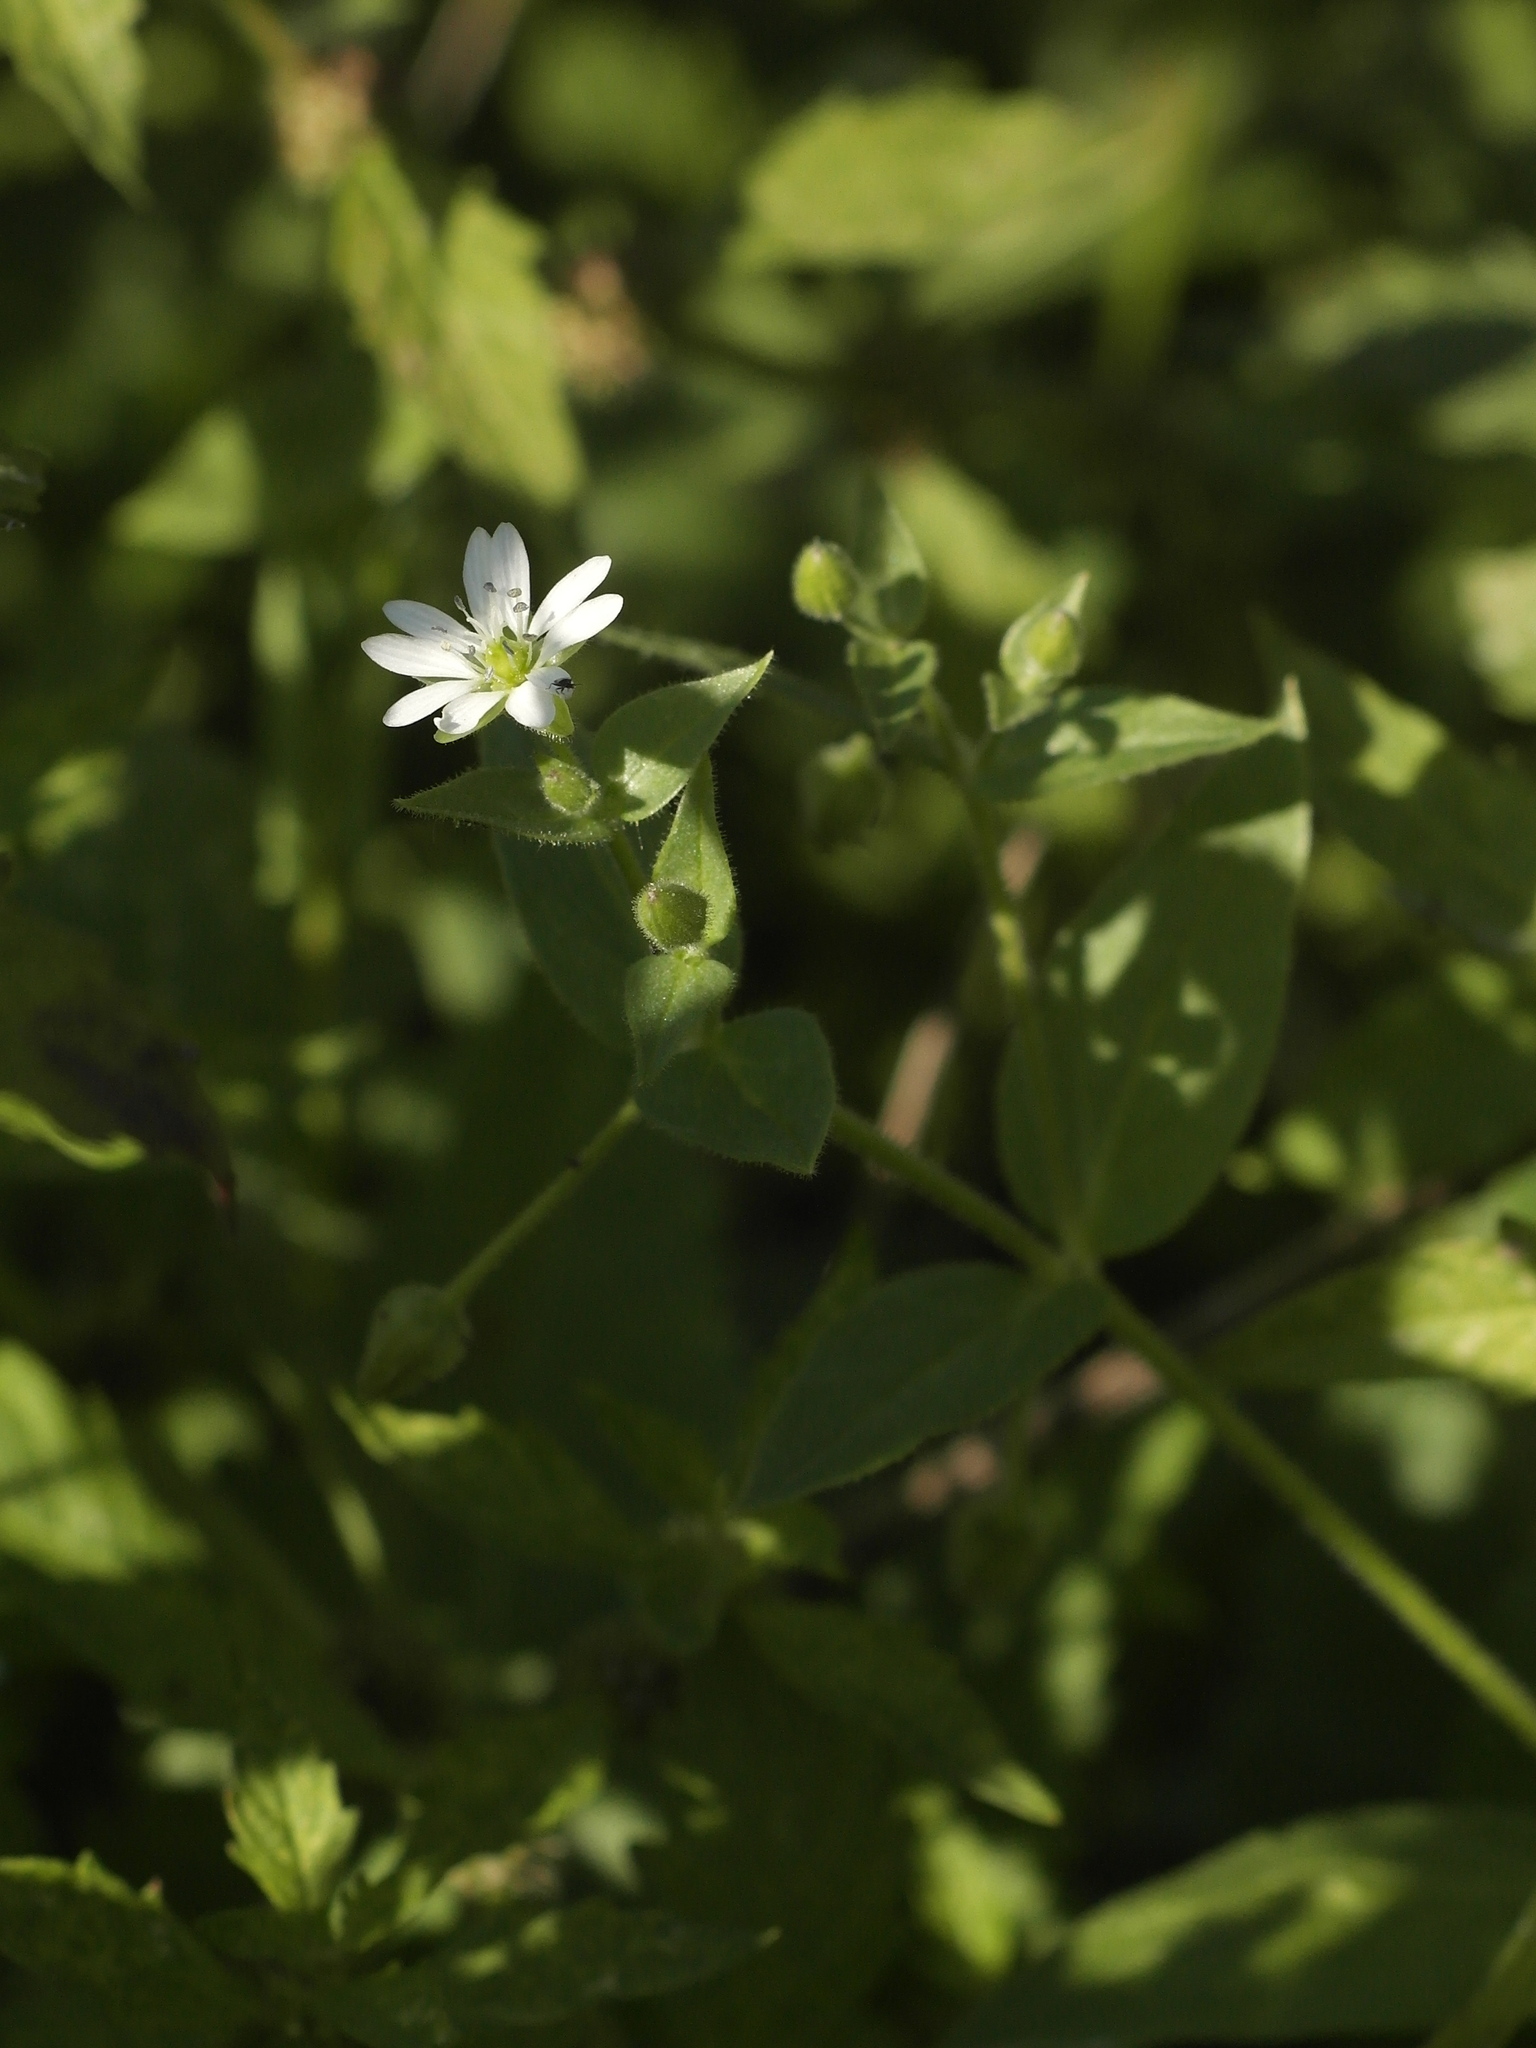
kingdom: Plantae
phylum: Tracheophyta
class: Magnoliopsida
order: Caryophyllales
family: Caryophyllaceae
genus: Stellaria
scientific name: Stellaria aquatica
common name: Water chickweed
